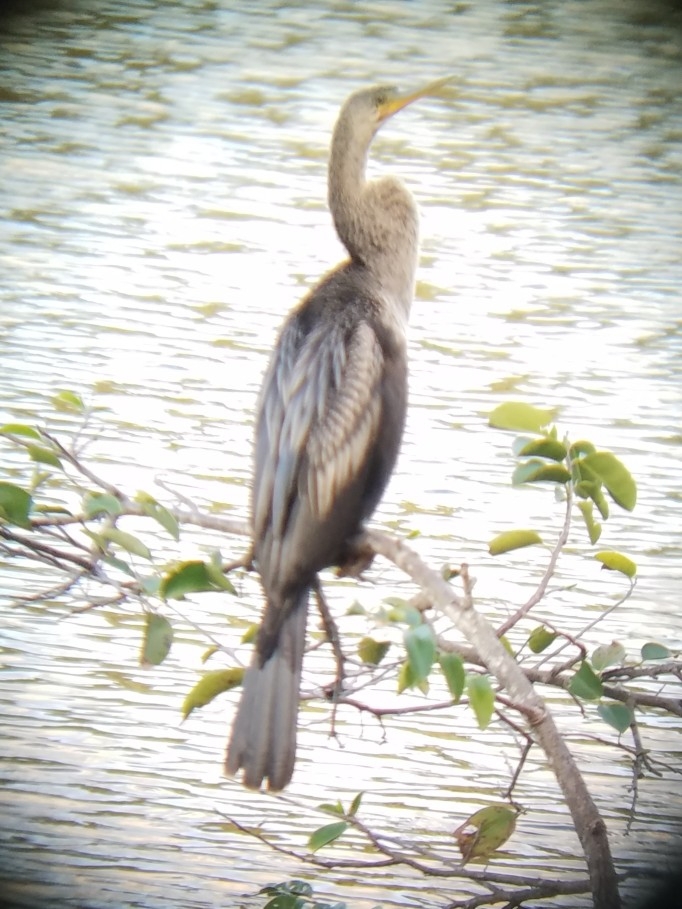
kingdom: Animalia
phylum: Chordata
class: Aves
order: Suliformes
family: Anhingidae
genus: Anhinga
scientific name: Anhinga anhinga
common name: Anhinga
